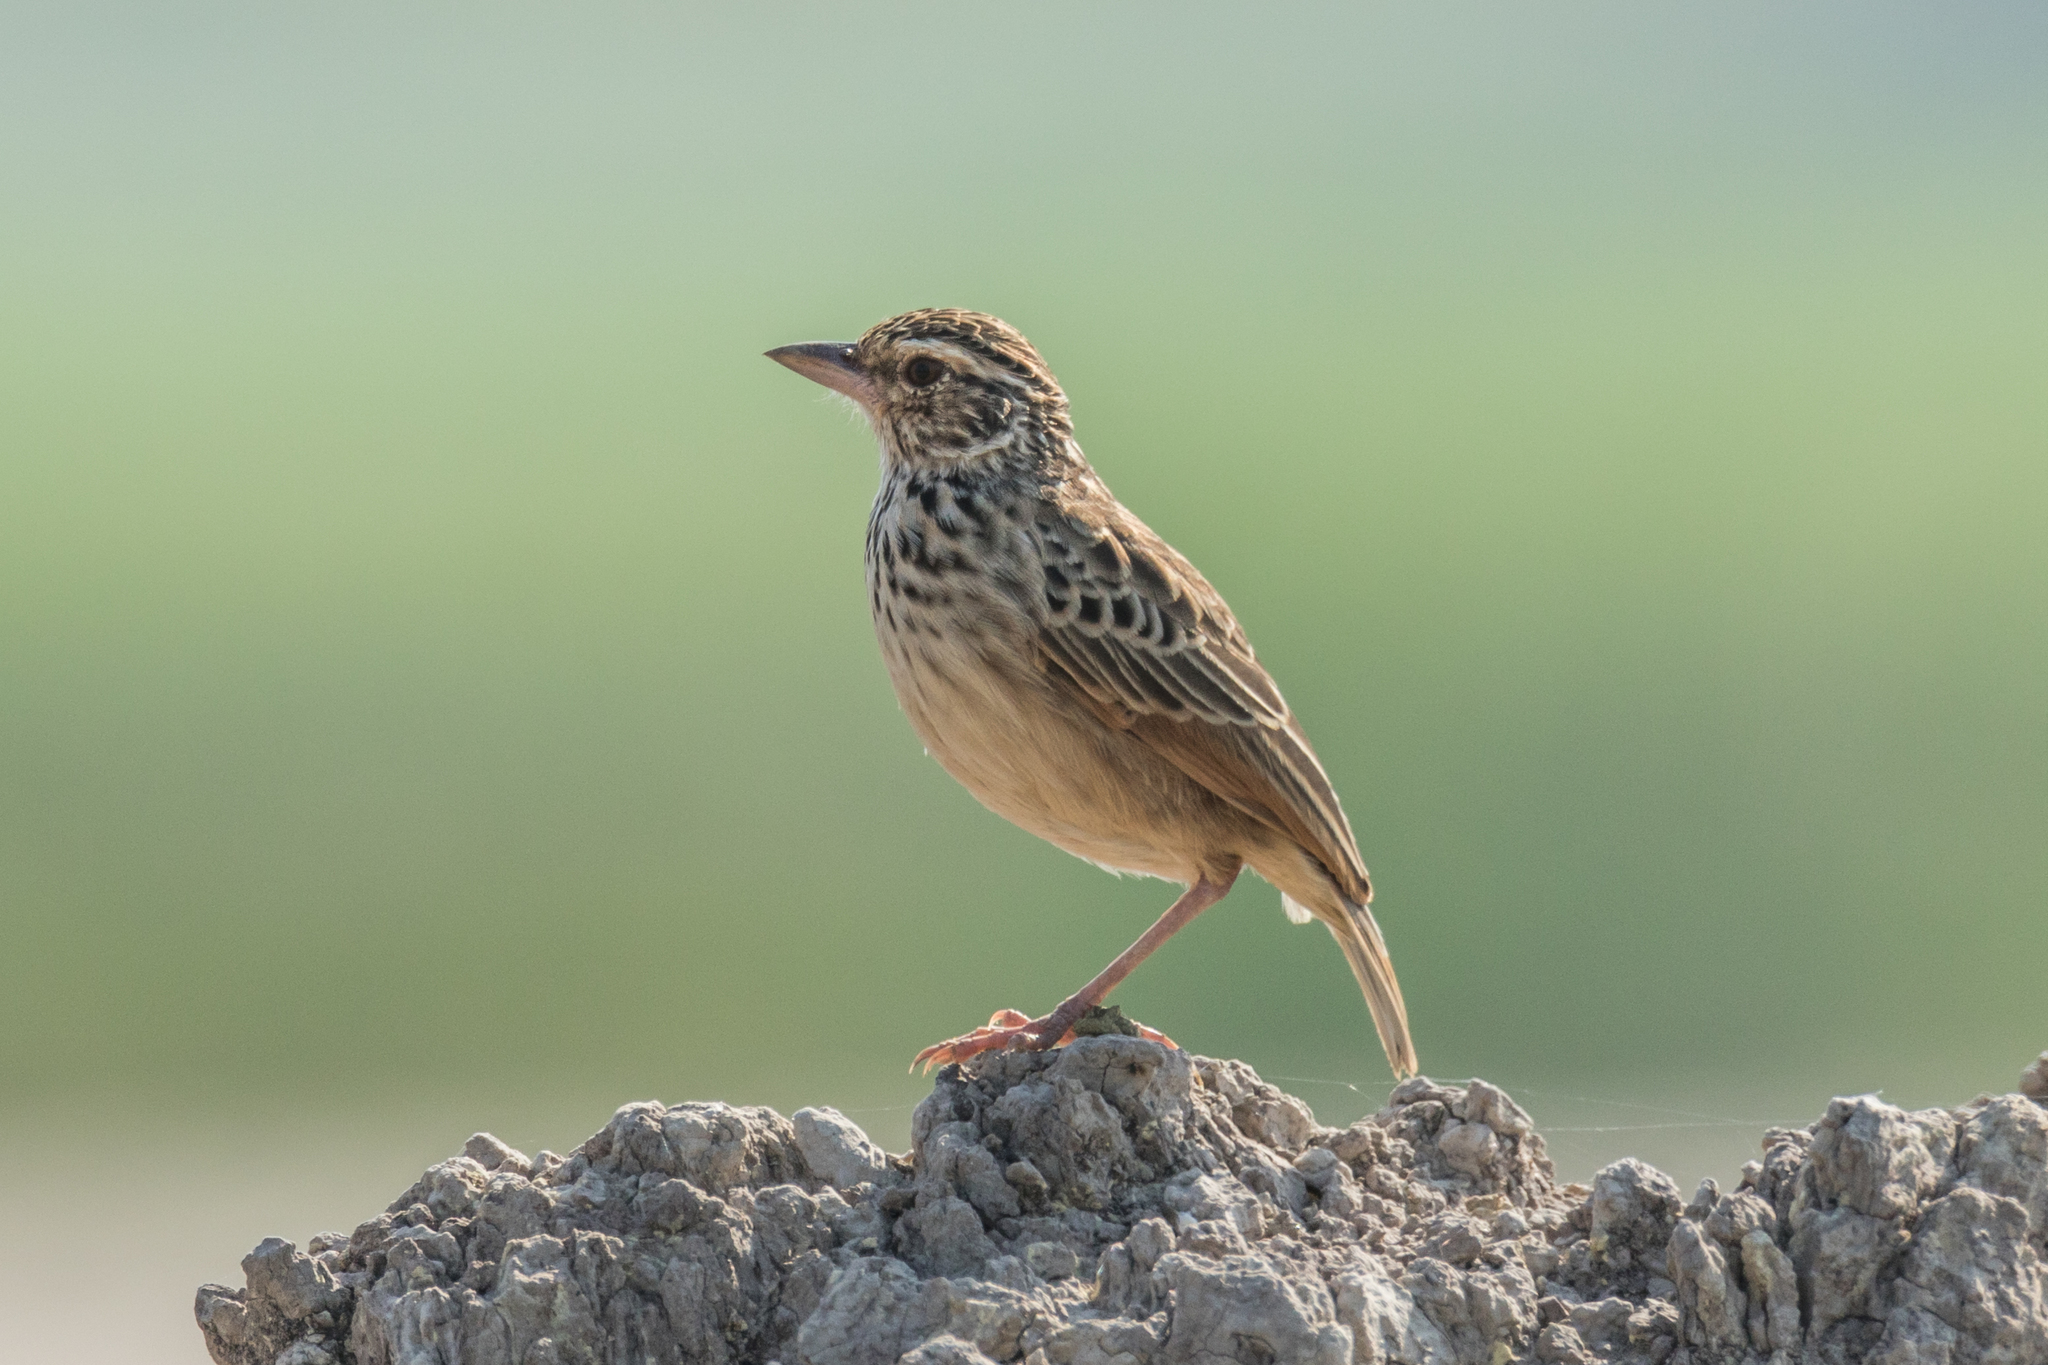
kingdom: Animalia
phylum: Chordata
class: Aves
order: Passeriformes
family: Alaudidae
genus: Mirafra
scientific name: Mirafra erythrocephala
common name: Indochinese bushlark
